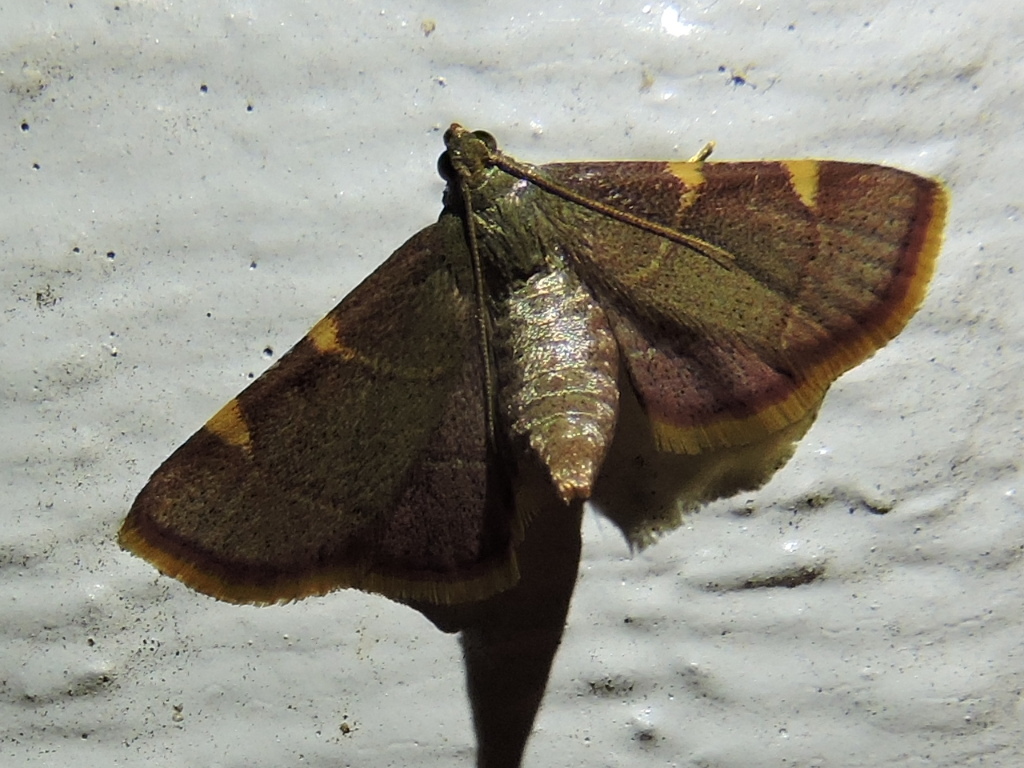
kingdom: Animalia
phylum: Arthropoda
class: Insecta
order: Lepidoptera
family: Pyralidae
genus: Hypsopygia
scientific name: Hypsopygia olinalis
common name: Yellow-fringed dolichomia moth
